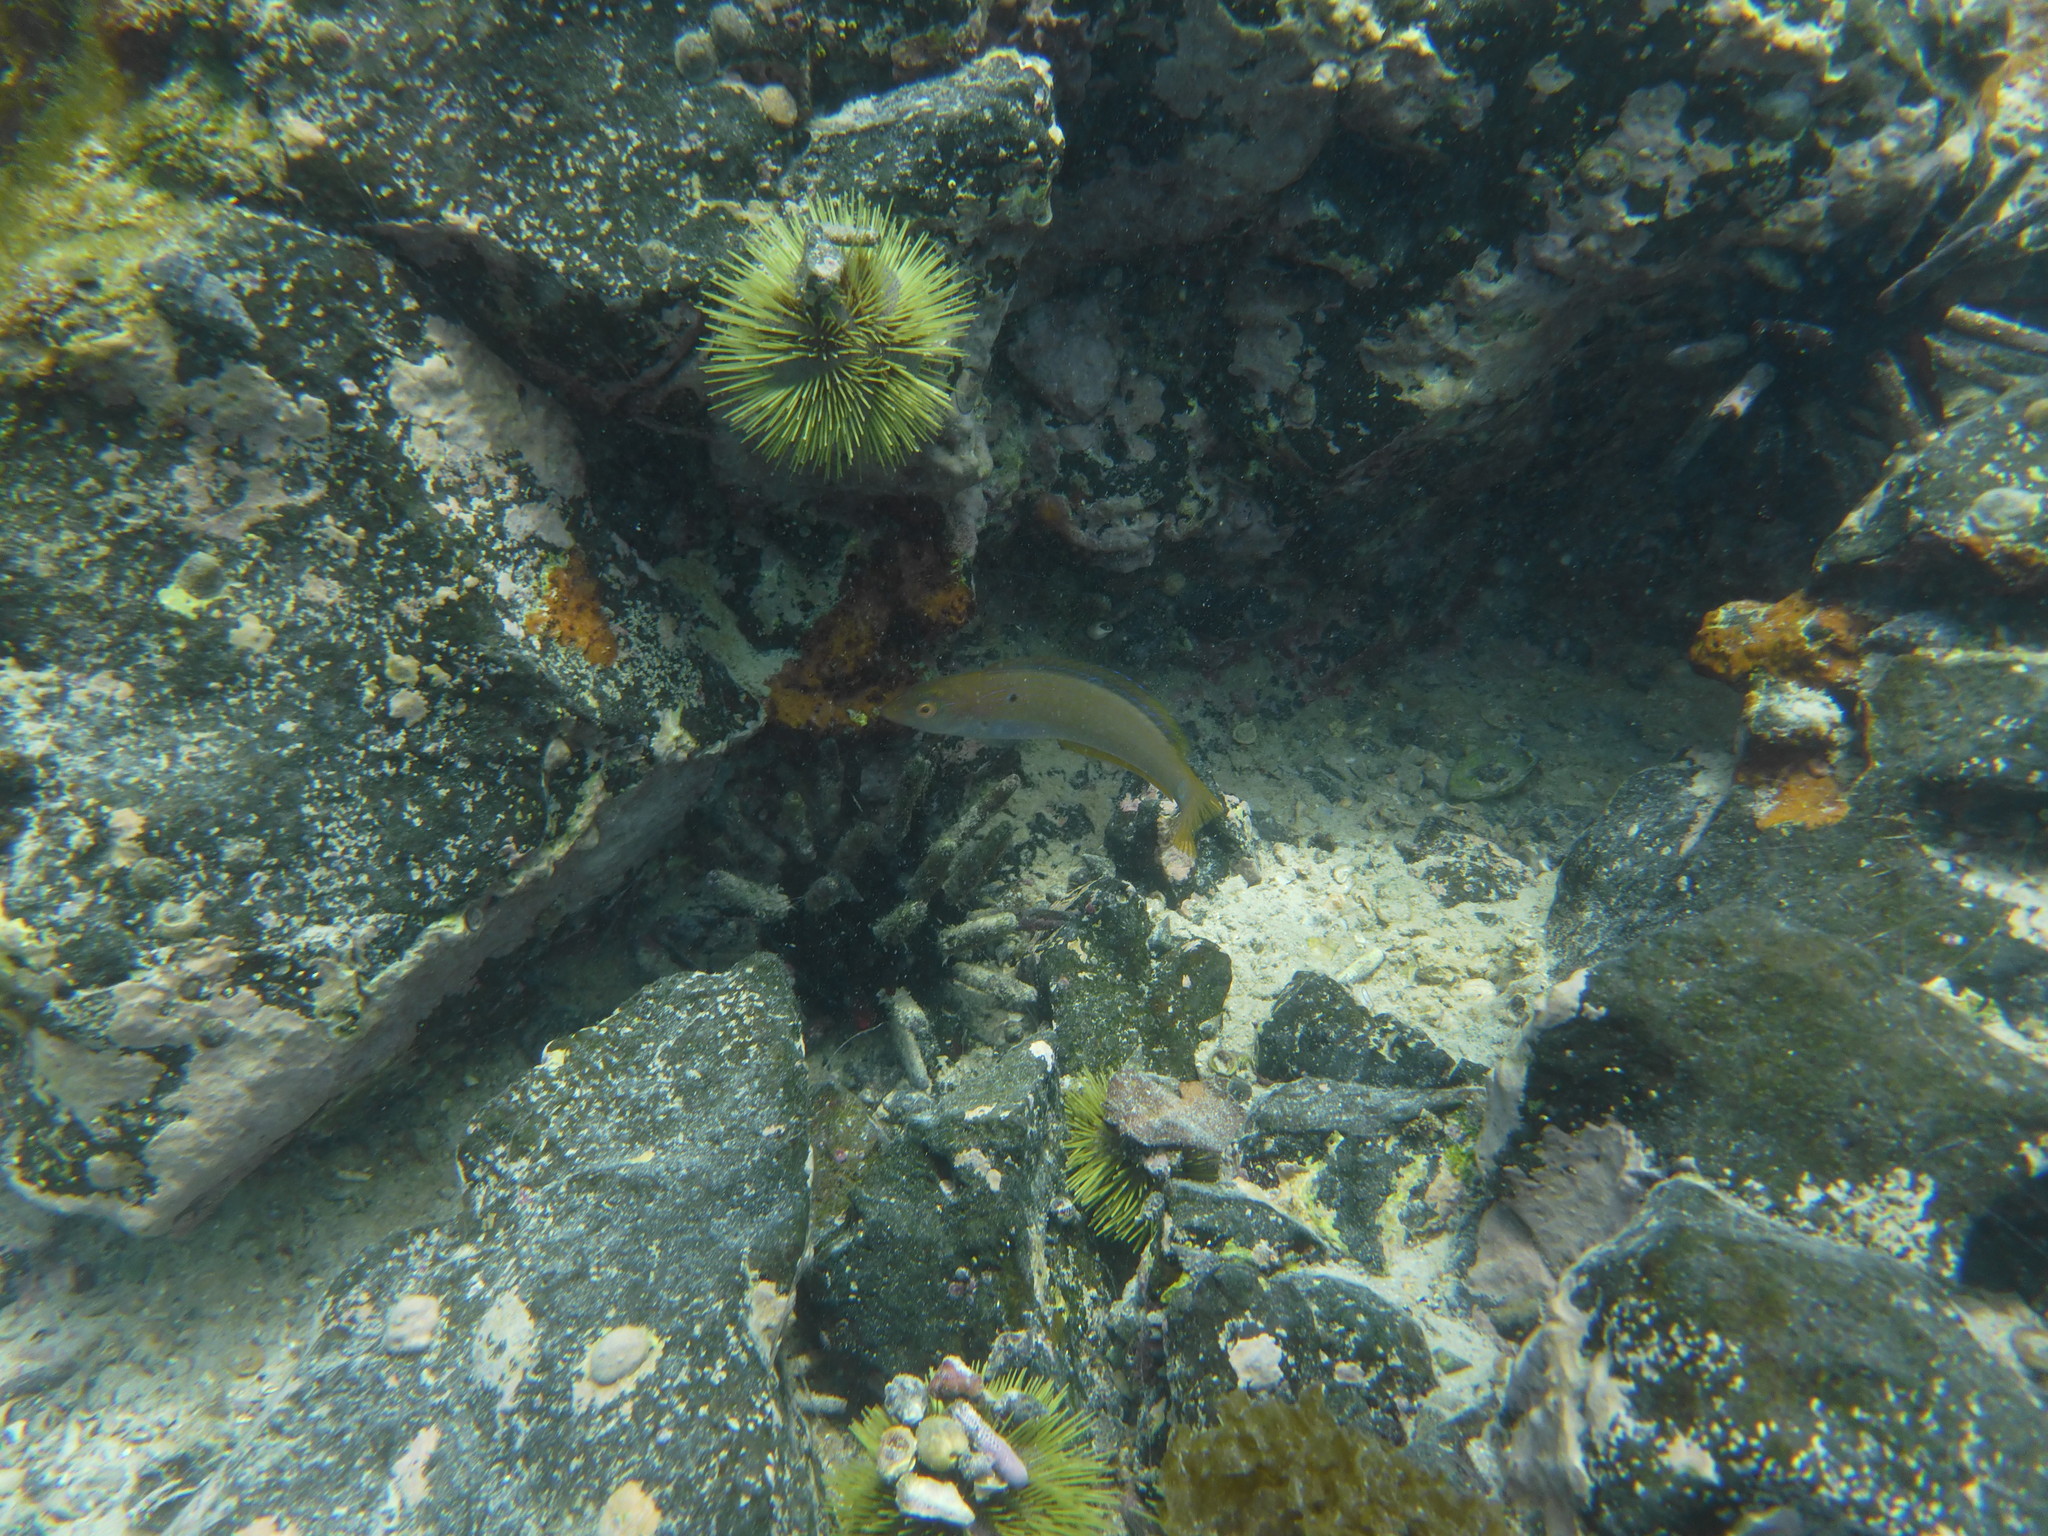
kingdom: Animalia
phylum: Chordata
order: Perciformes
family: Labridae
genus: Halichoeres
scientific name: Halichoeres dispilus
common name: Chameleon wrasse
